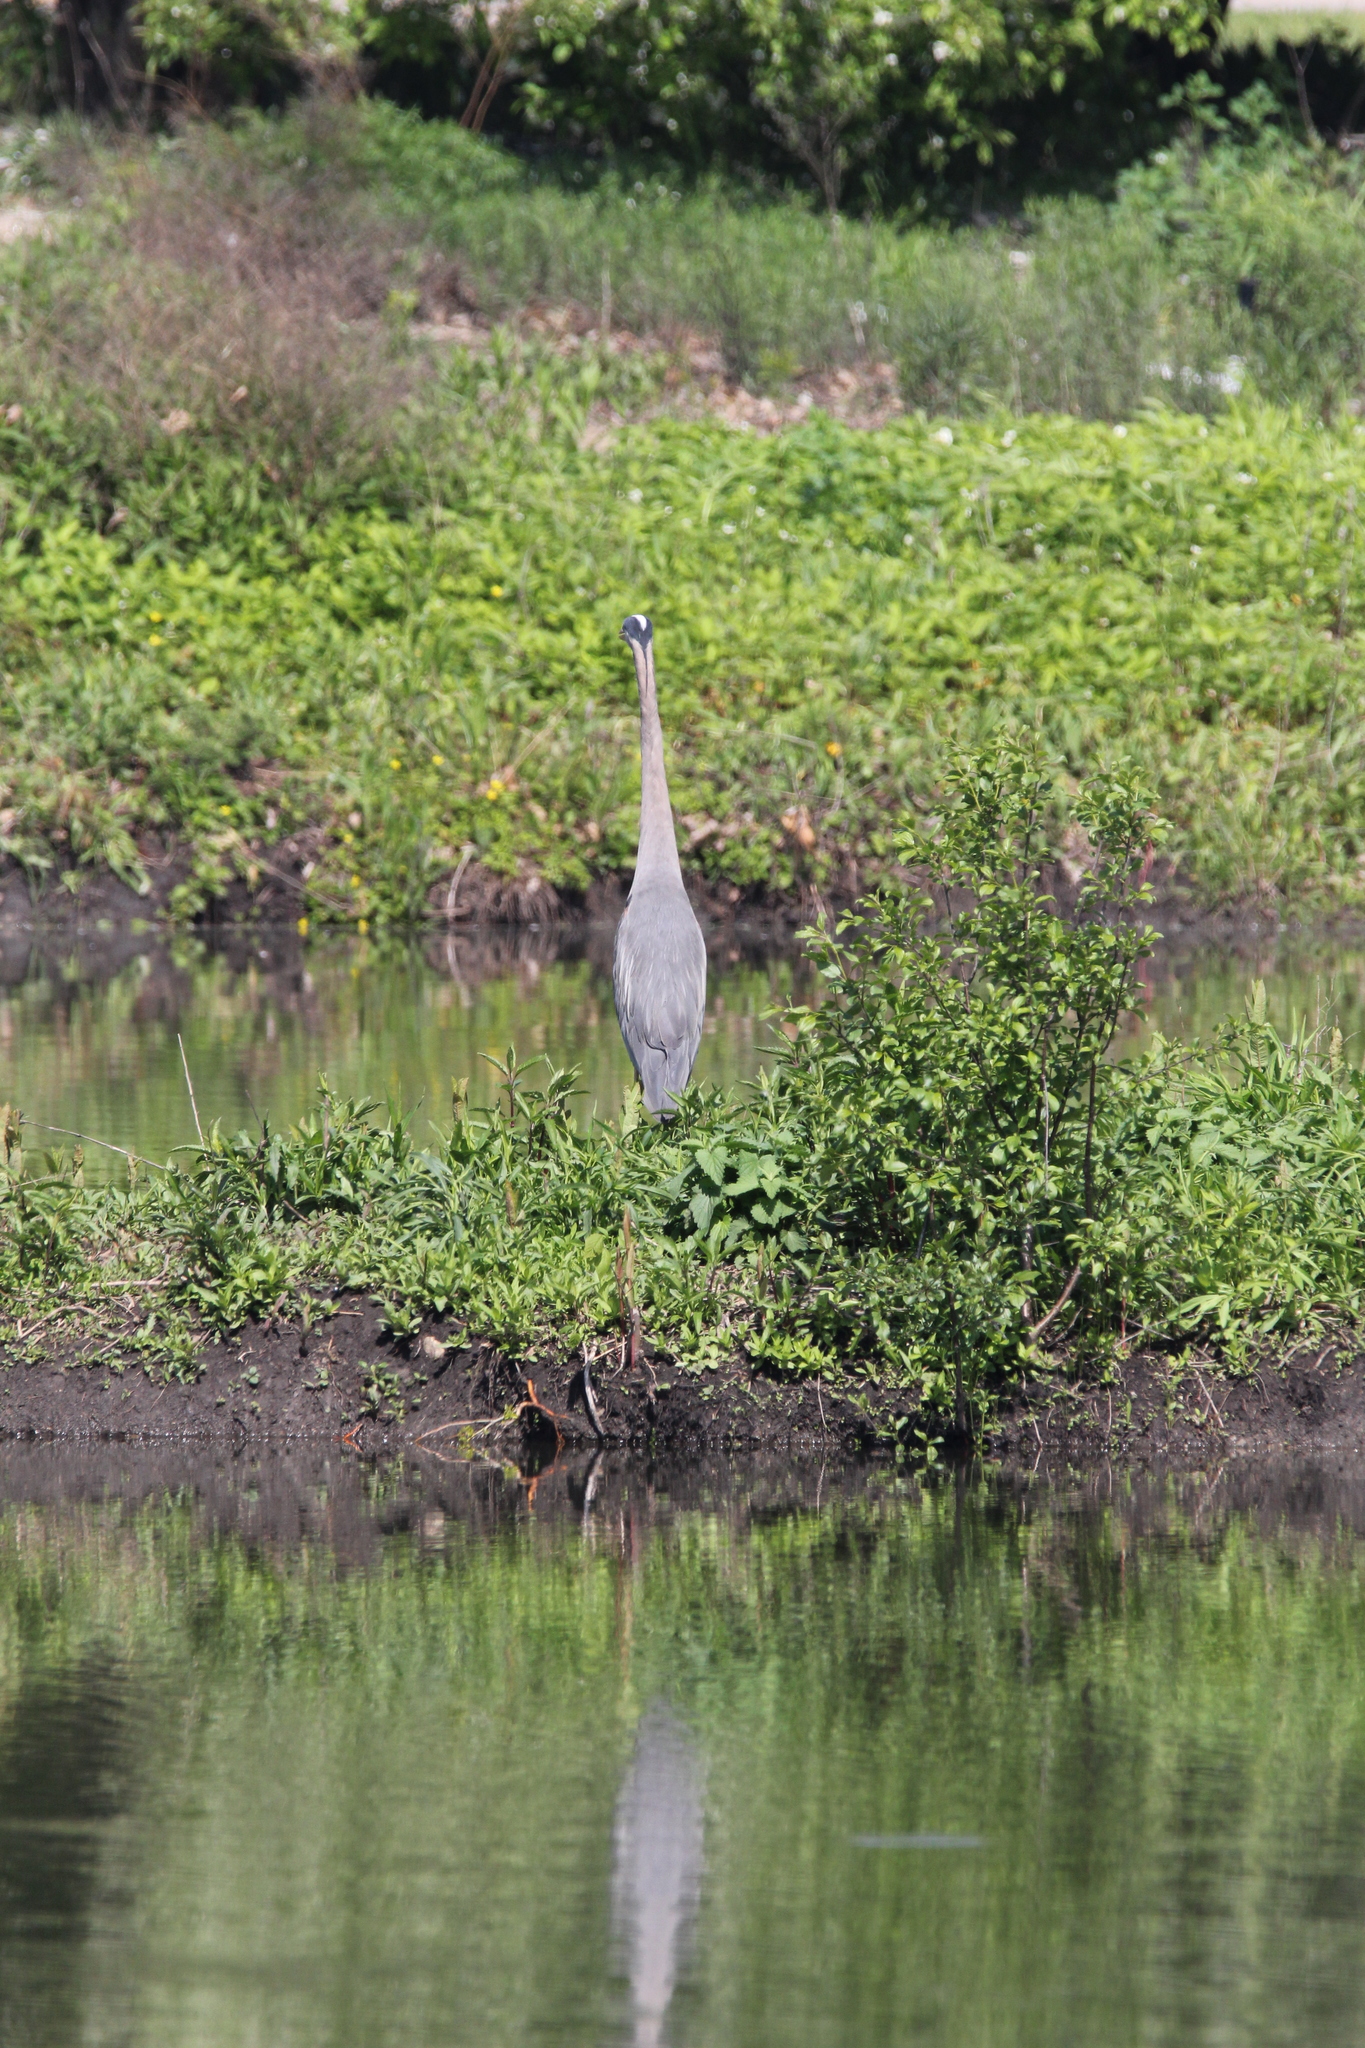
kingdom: Animalia
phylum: Chordata
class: Aves
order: Pelecaniformes
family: Ardeidae
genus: Ardea
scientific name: Ardea herodias
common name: Great blue heron
